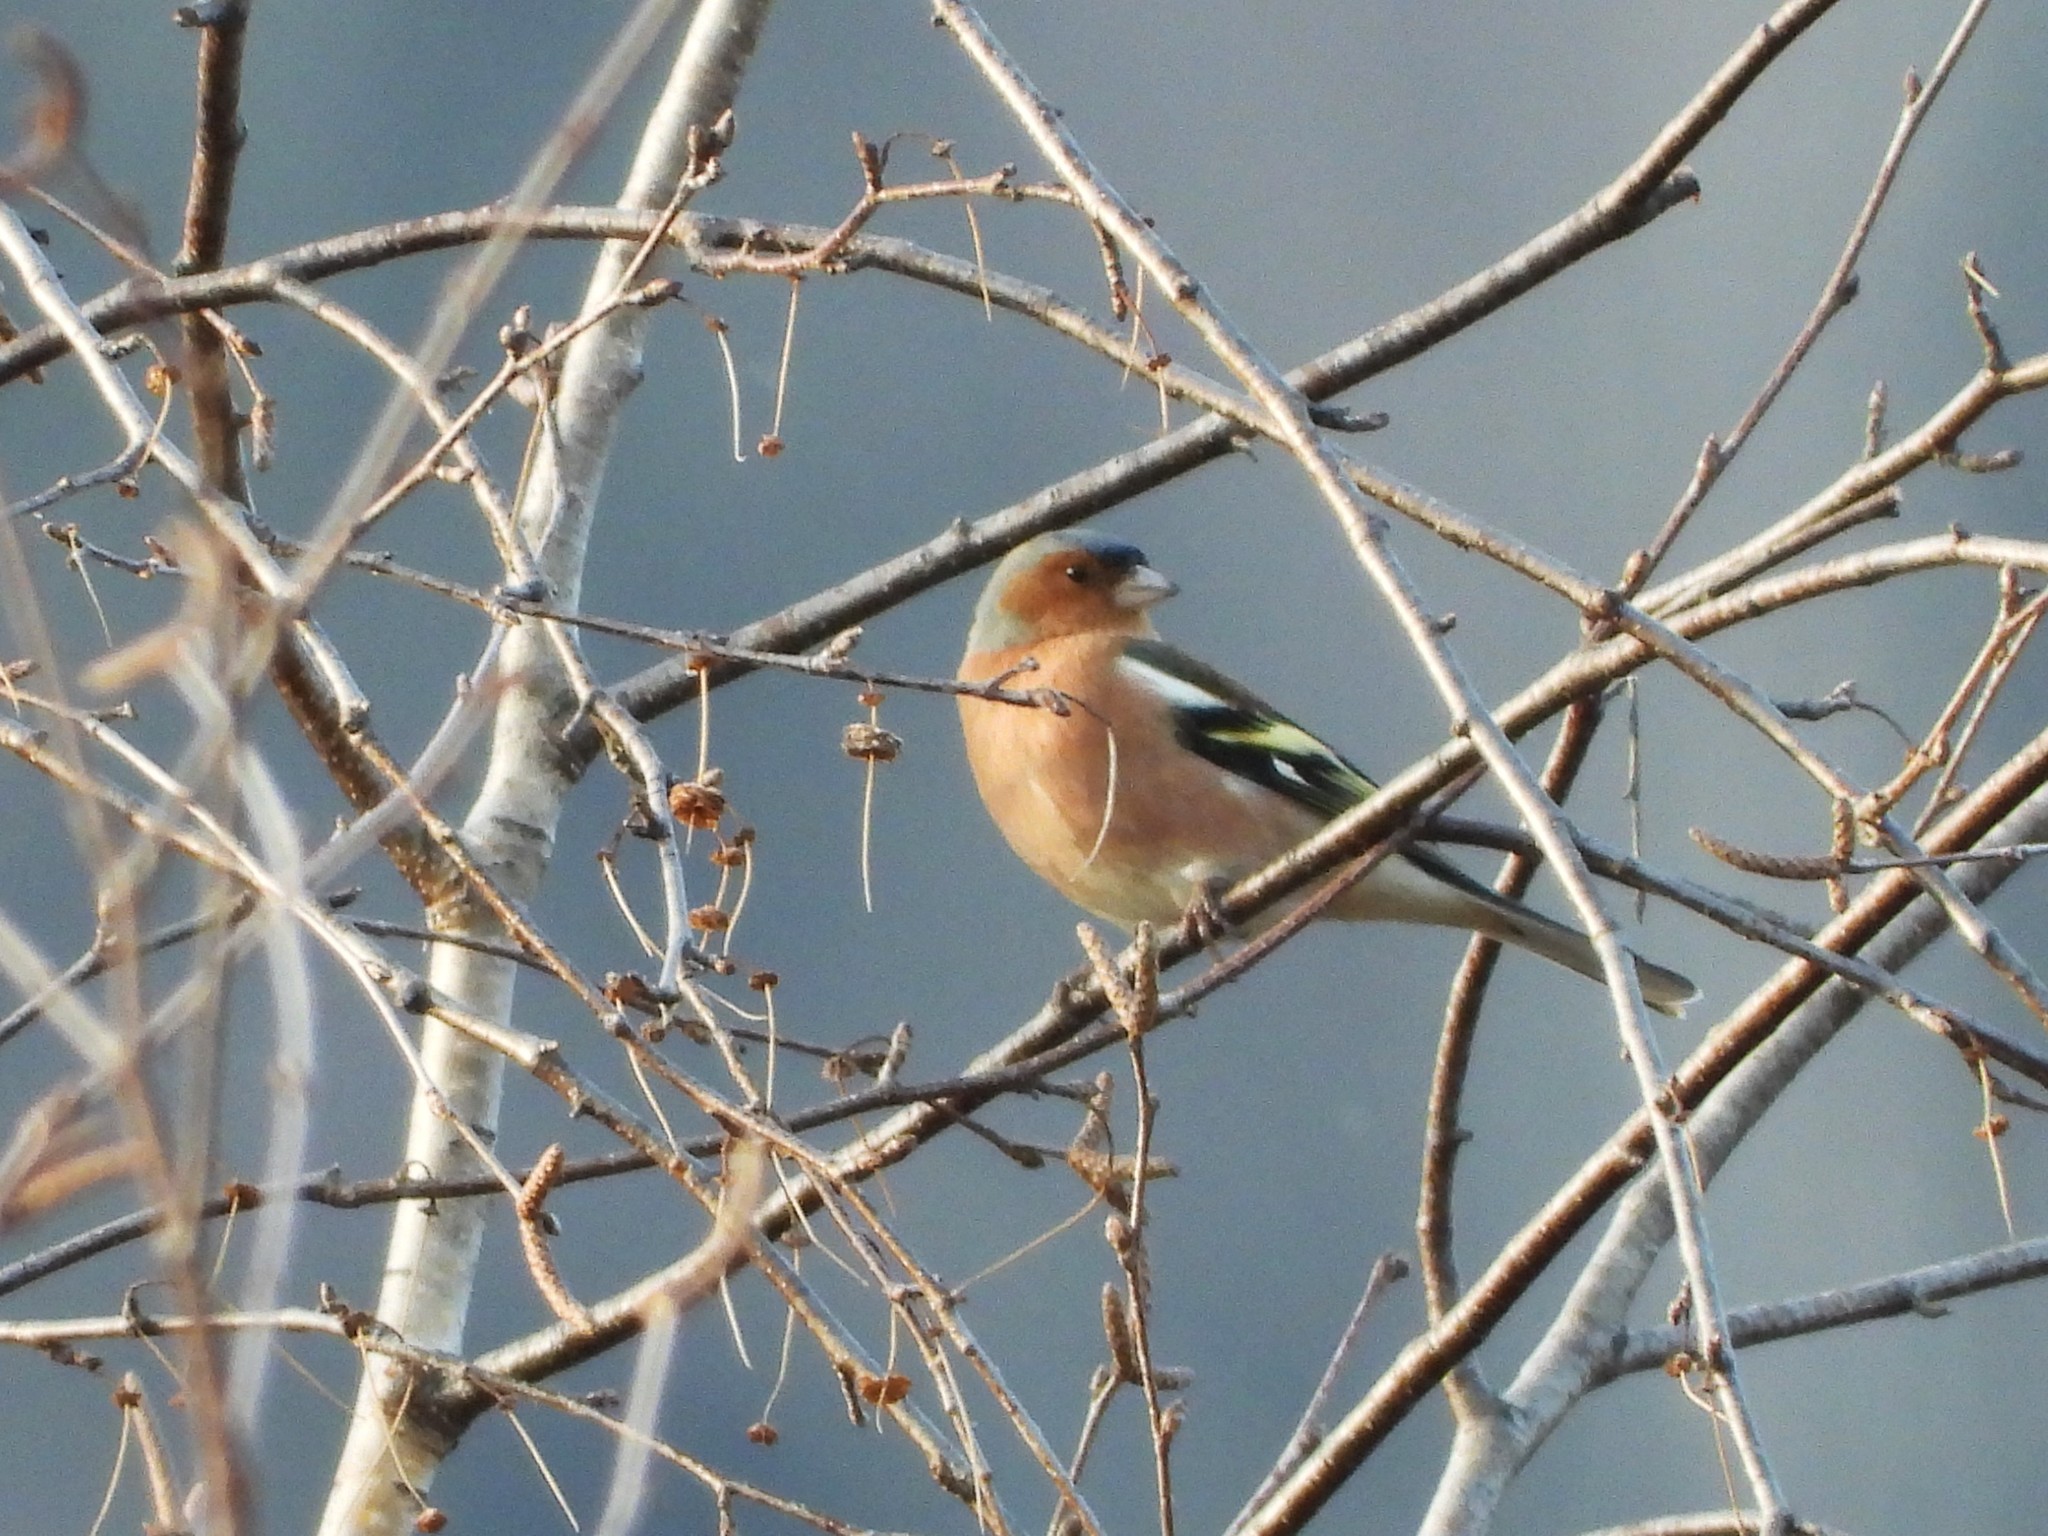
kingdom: Animalia
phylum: Chordata
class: Aves
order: Passeriformes
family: Fringillidae
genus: Fringilla
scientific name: Fringilla coelebs
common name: Common chaffinch
